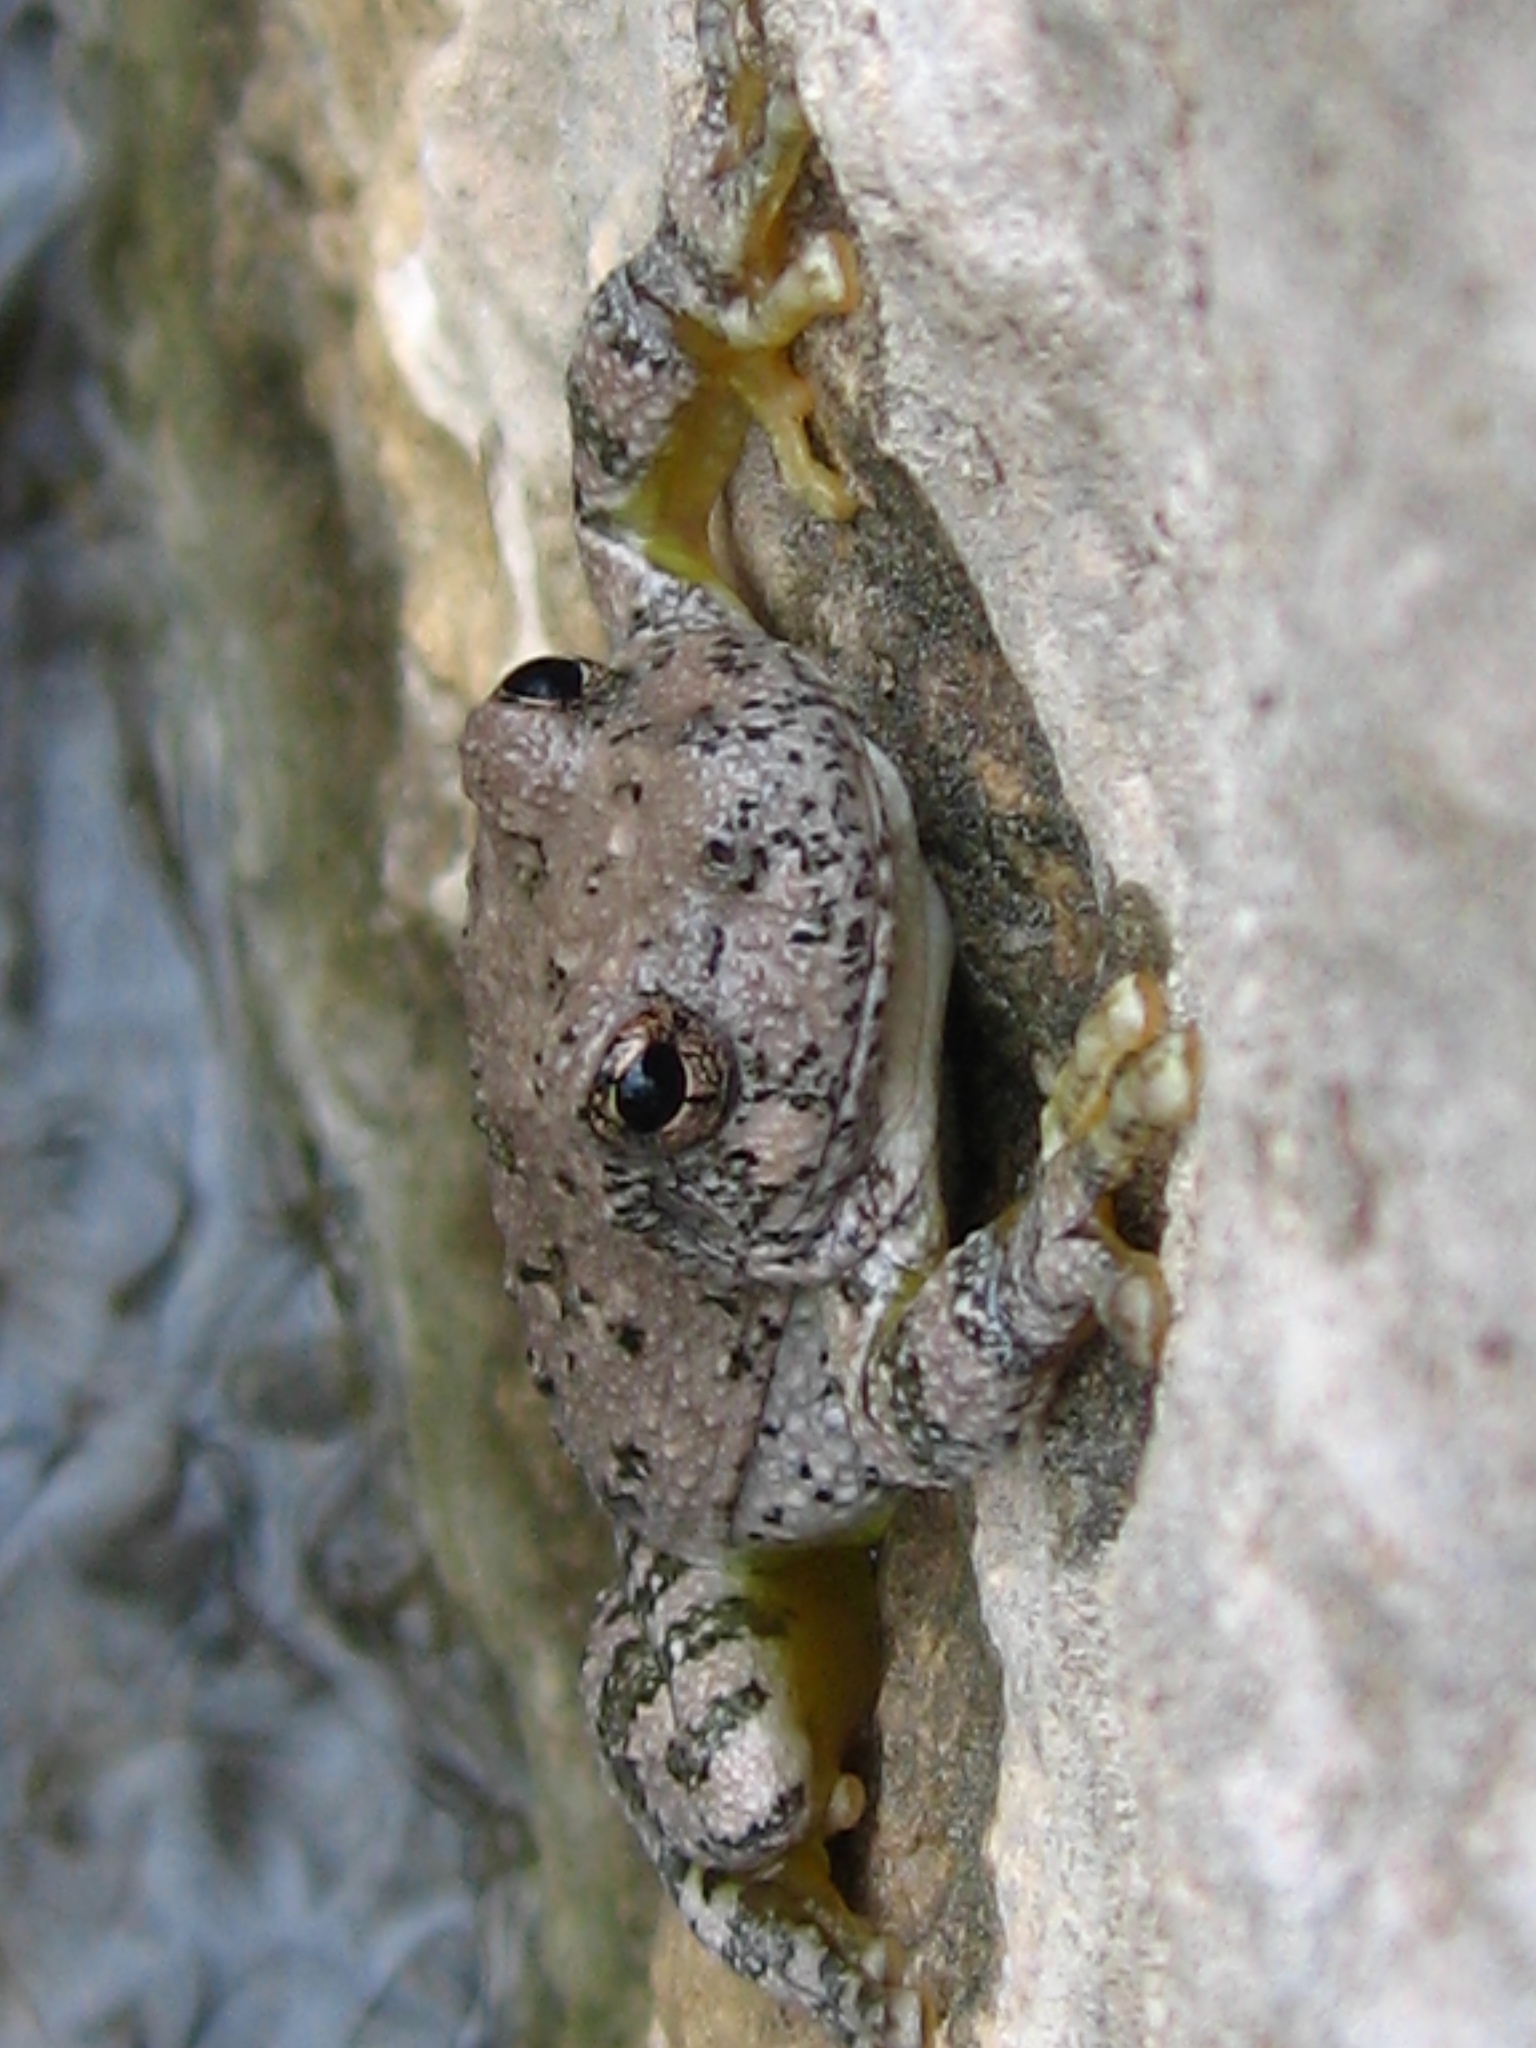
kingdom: Animalia
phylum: Chordata
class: Amphibia
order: Anura
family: Hylidae
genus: Dryophytes
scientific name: Dryophytes arenicolor
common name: Canyon treefrog
